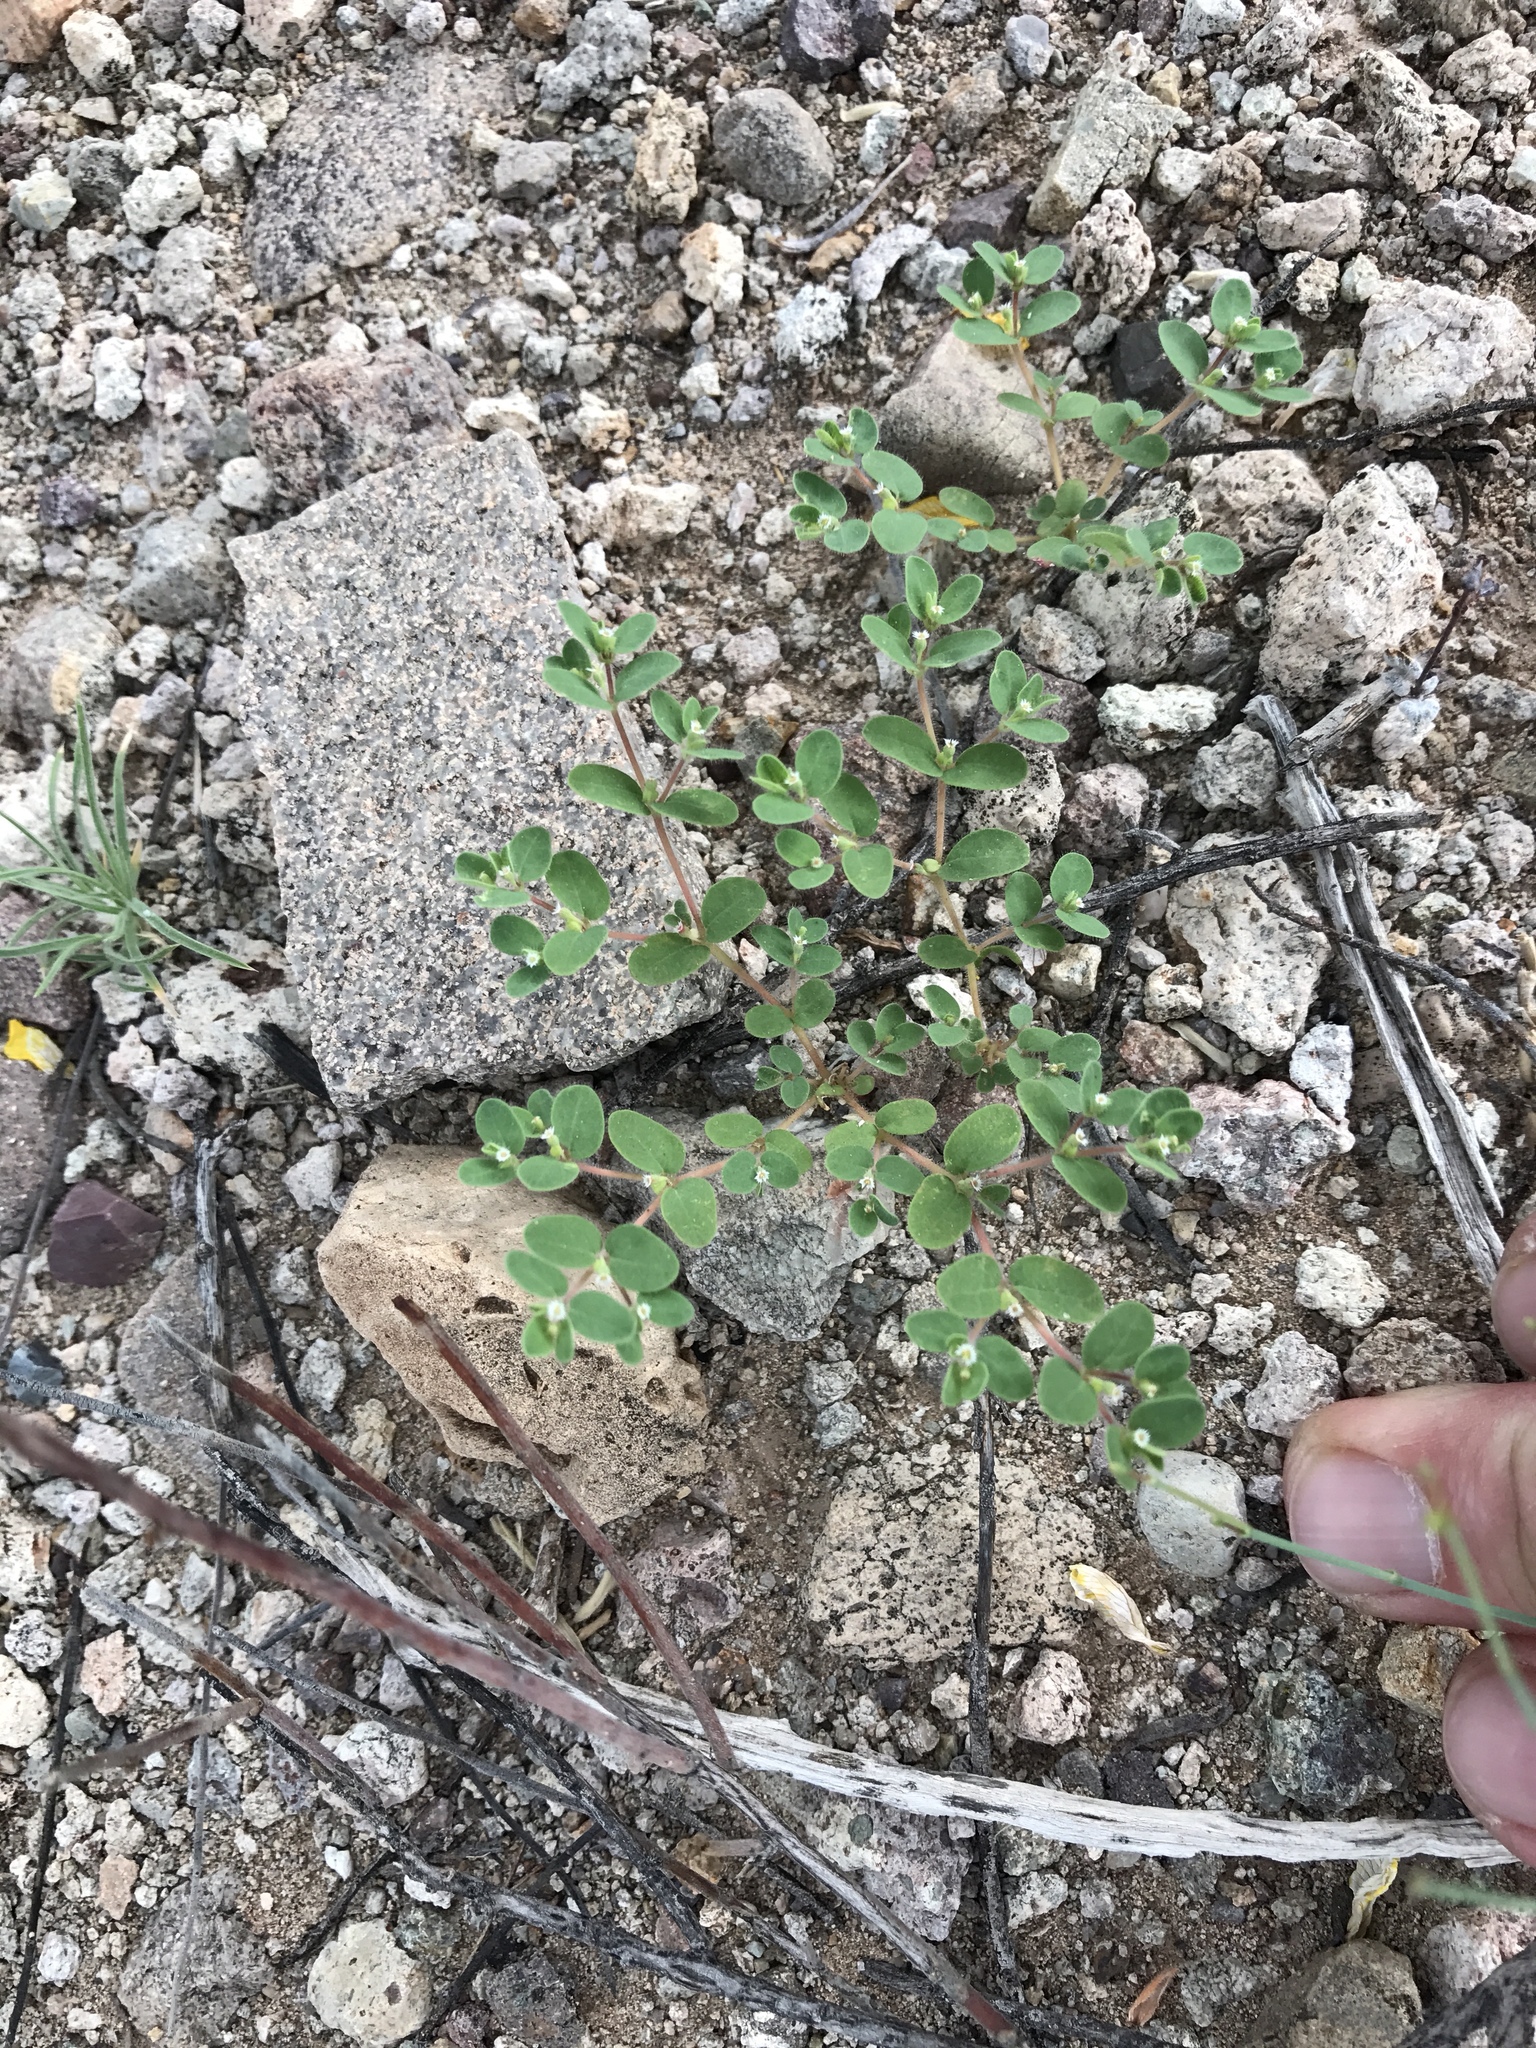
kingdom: Plantae
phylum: Tracheophyta
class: Magnoliopsida
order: Malpighiales
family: Euphorbiaceae
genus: Euphorbia
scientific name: Euphorbia setiloba
